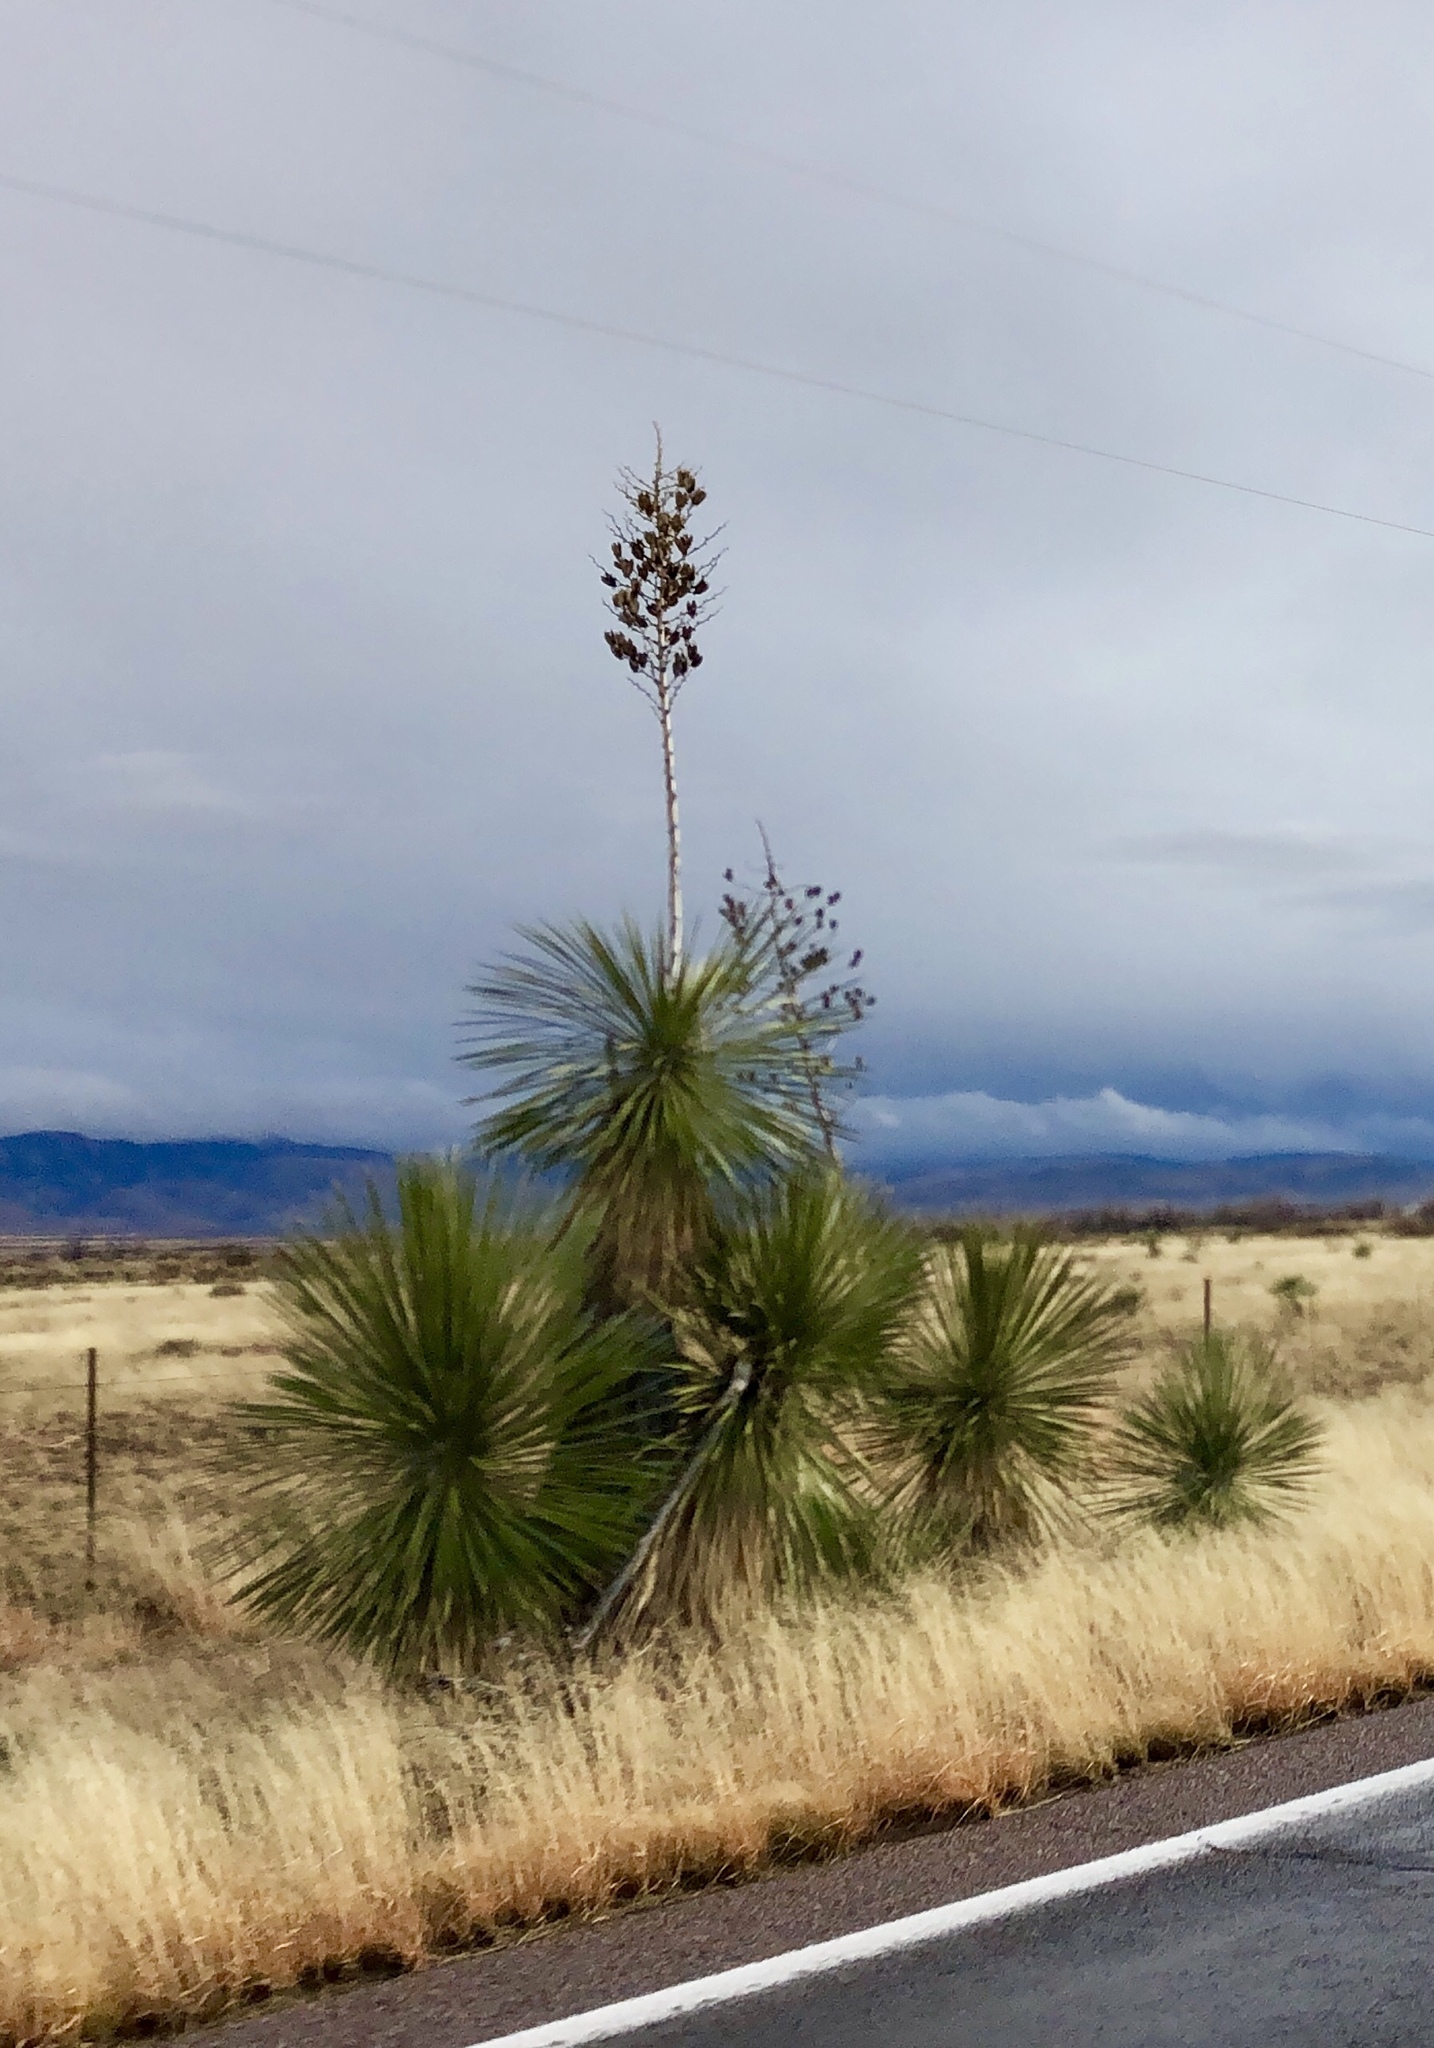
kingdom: Plantae
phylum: Tracheophyta
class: Liliopsida
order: Asparagales
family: Asparagaceae
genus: Yucca
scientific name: Yucca elata
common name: Palmella
